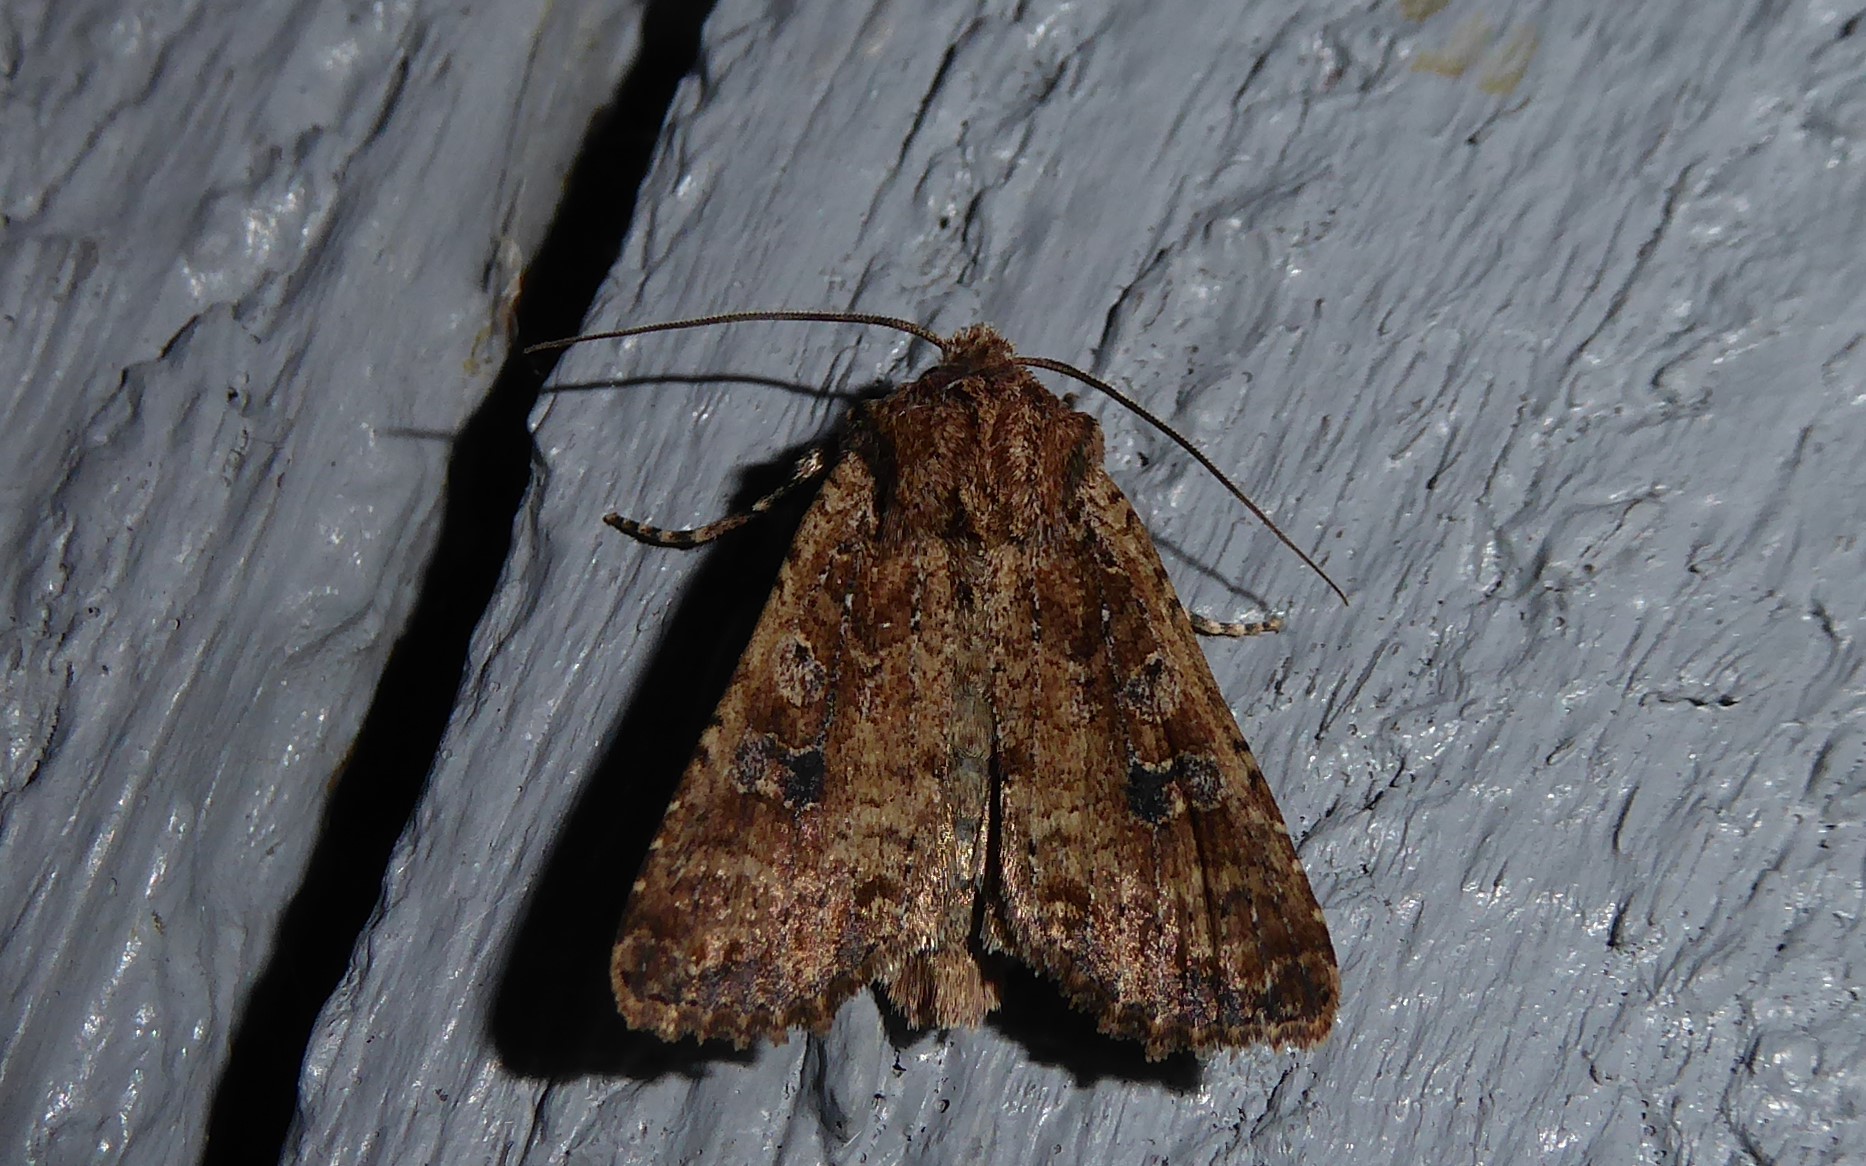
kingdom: Animalia
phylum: Arthropoda
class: Insecta
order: Lepidoptera
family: Noctuidae
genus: Ichneutica
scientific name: Ichneutica morosa
